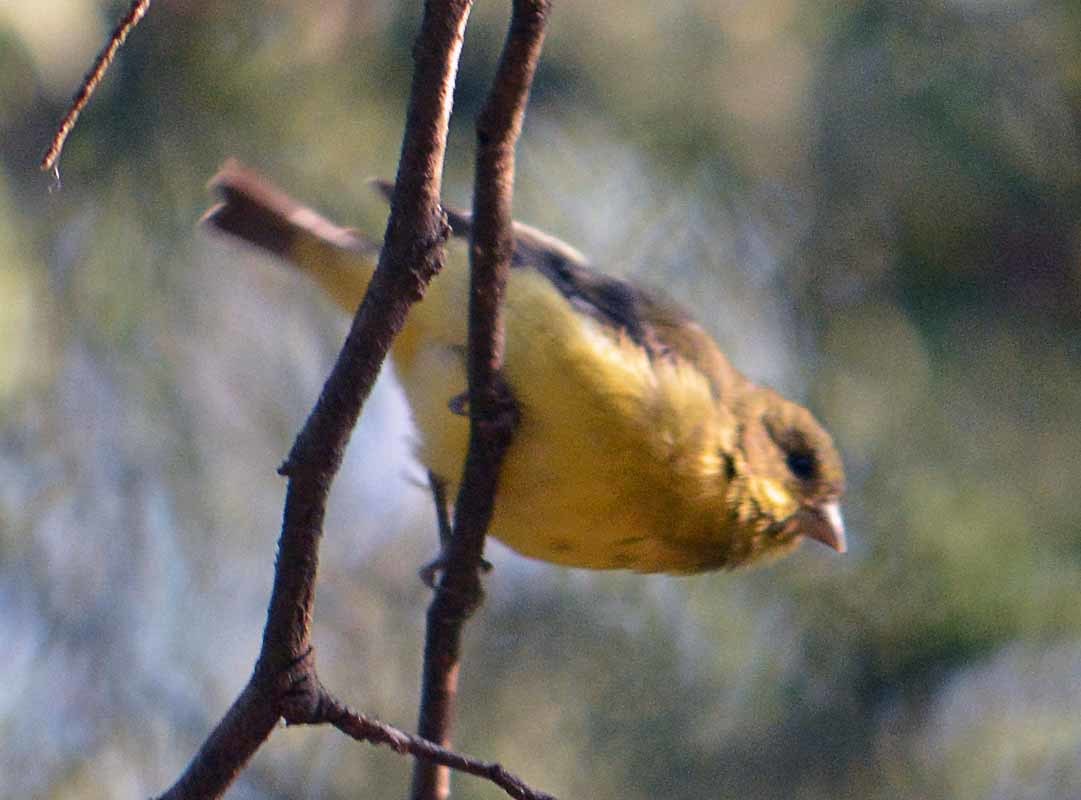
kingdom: Animalia
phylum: Chordata
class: Aves
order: Passeriformes
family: Fringillidae
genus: Spinus
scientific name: Spinus psaltria
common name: Lesser goldfinch
